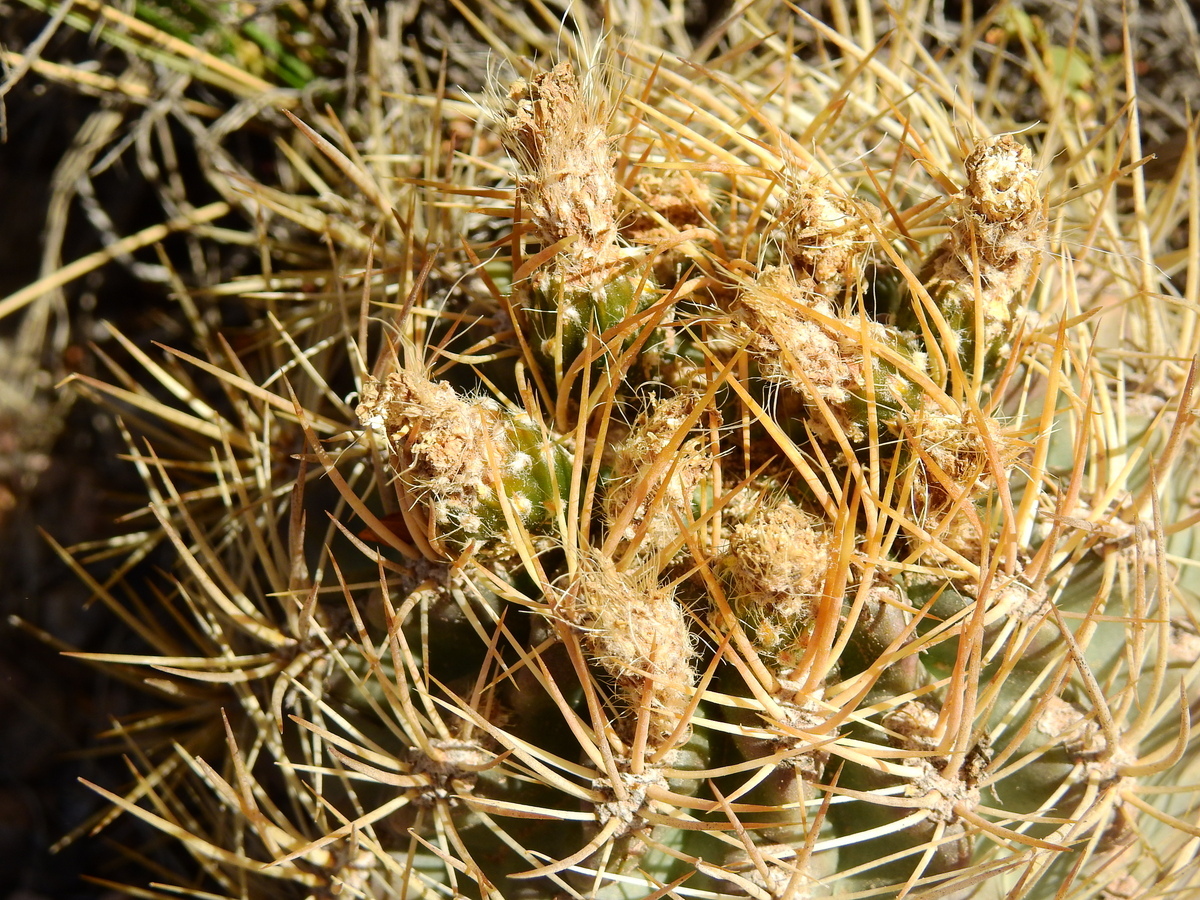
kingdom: Plantae
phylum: Tracheophyta
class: Magnoliopsida
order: Caryophyllales
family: Cactaceae
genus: Eriosyce
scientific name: Eriosyce strausiana
